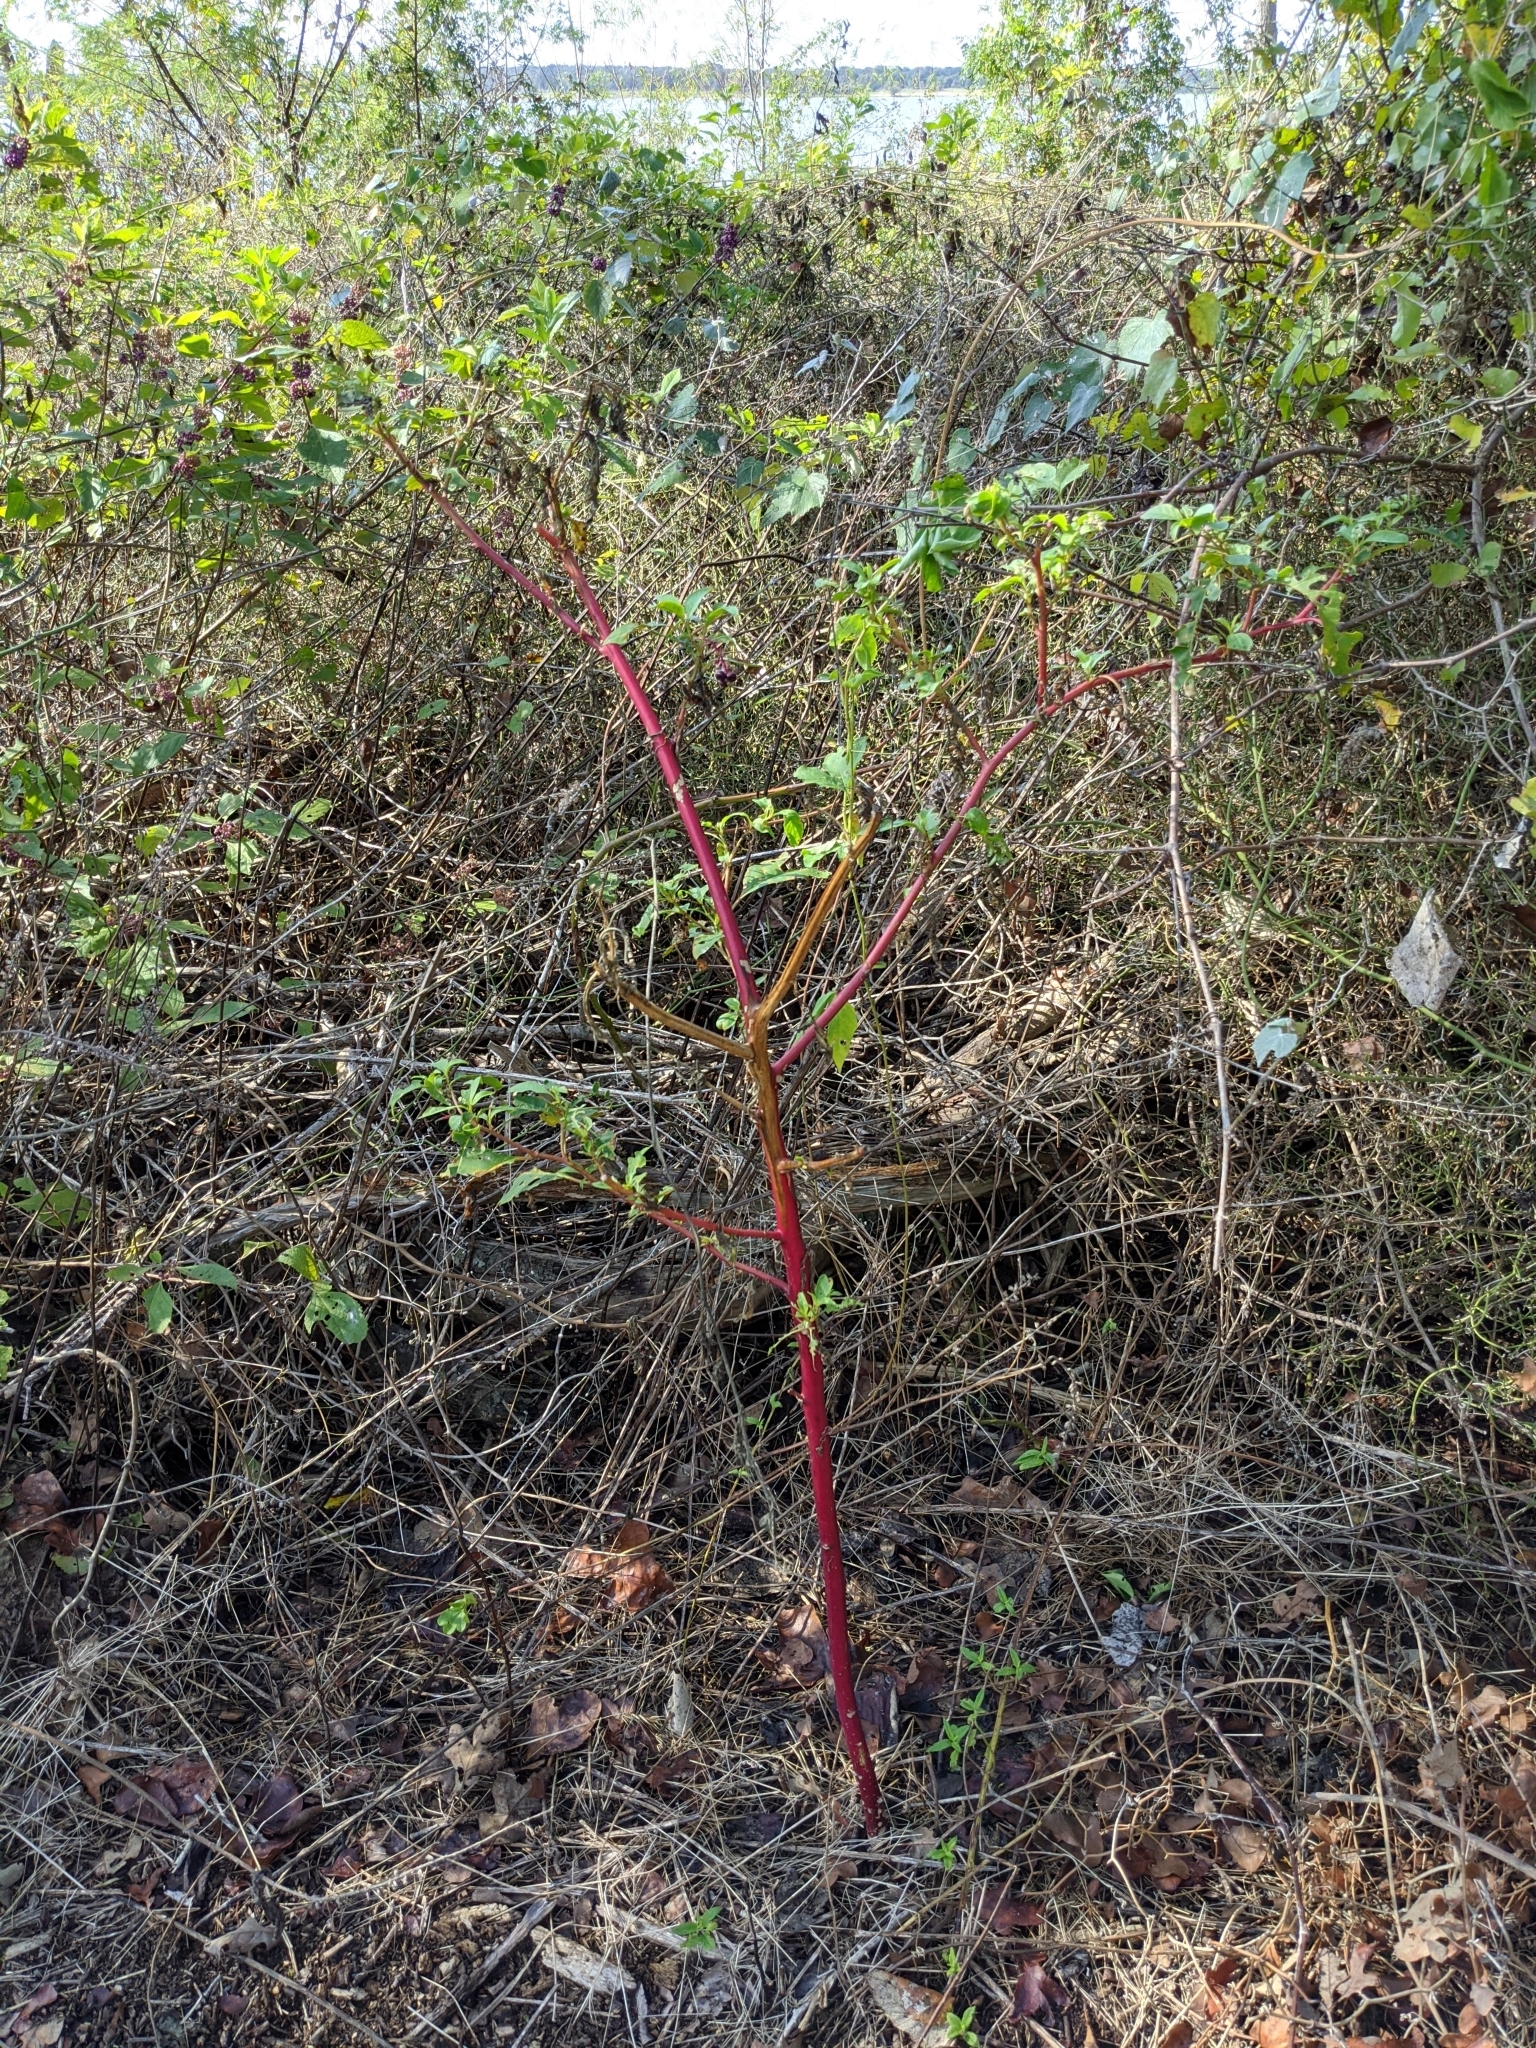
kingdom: Plantae
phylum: Tracheophyta
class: Magnoliopsida
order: Caryophyllales
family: Phytolaccaceae
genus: Phytolacca
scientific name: Phytolacca americana
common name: American pokeweed
